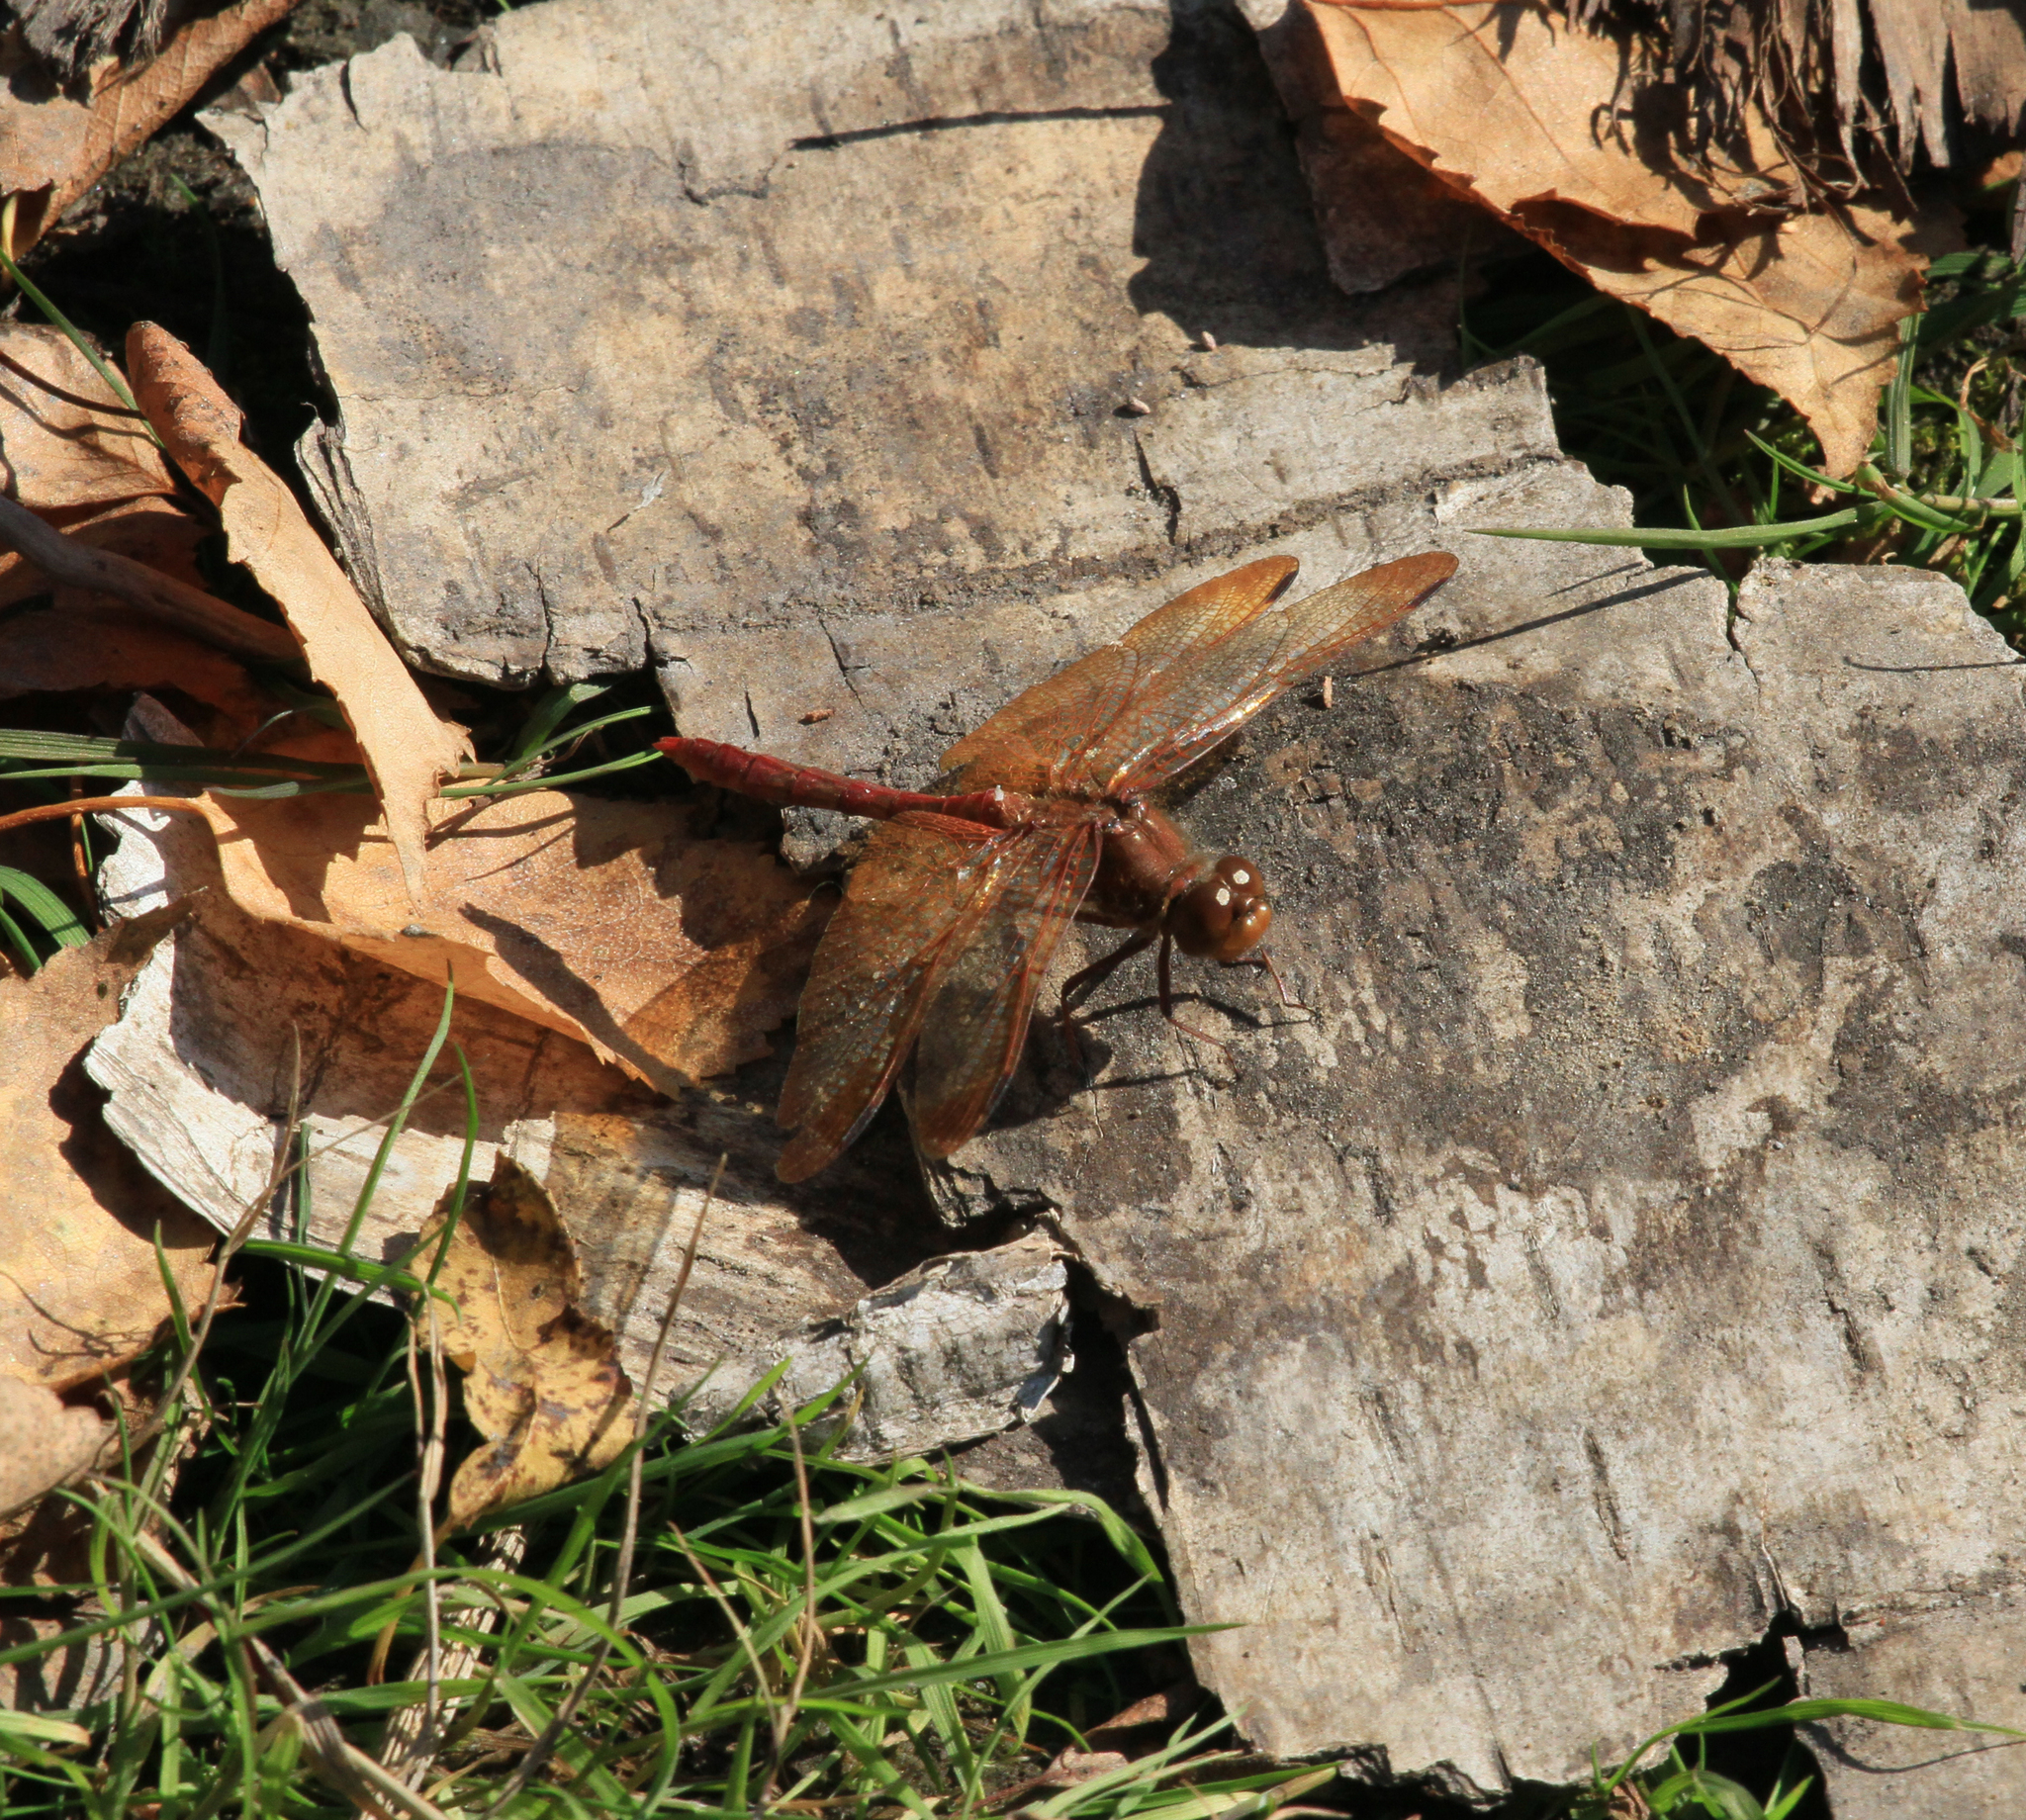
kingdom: Animalia
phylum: Arthropoda
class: Insecta
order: Odonata
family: Libellulidae
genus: Sympetrum
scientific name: Sympetrum croceolum
